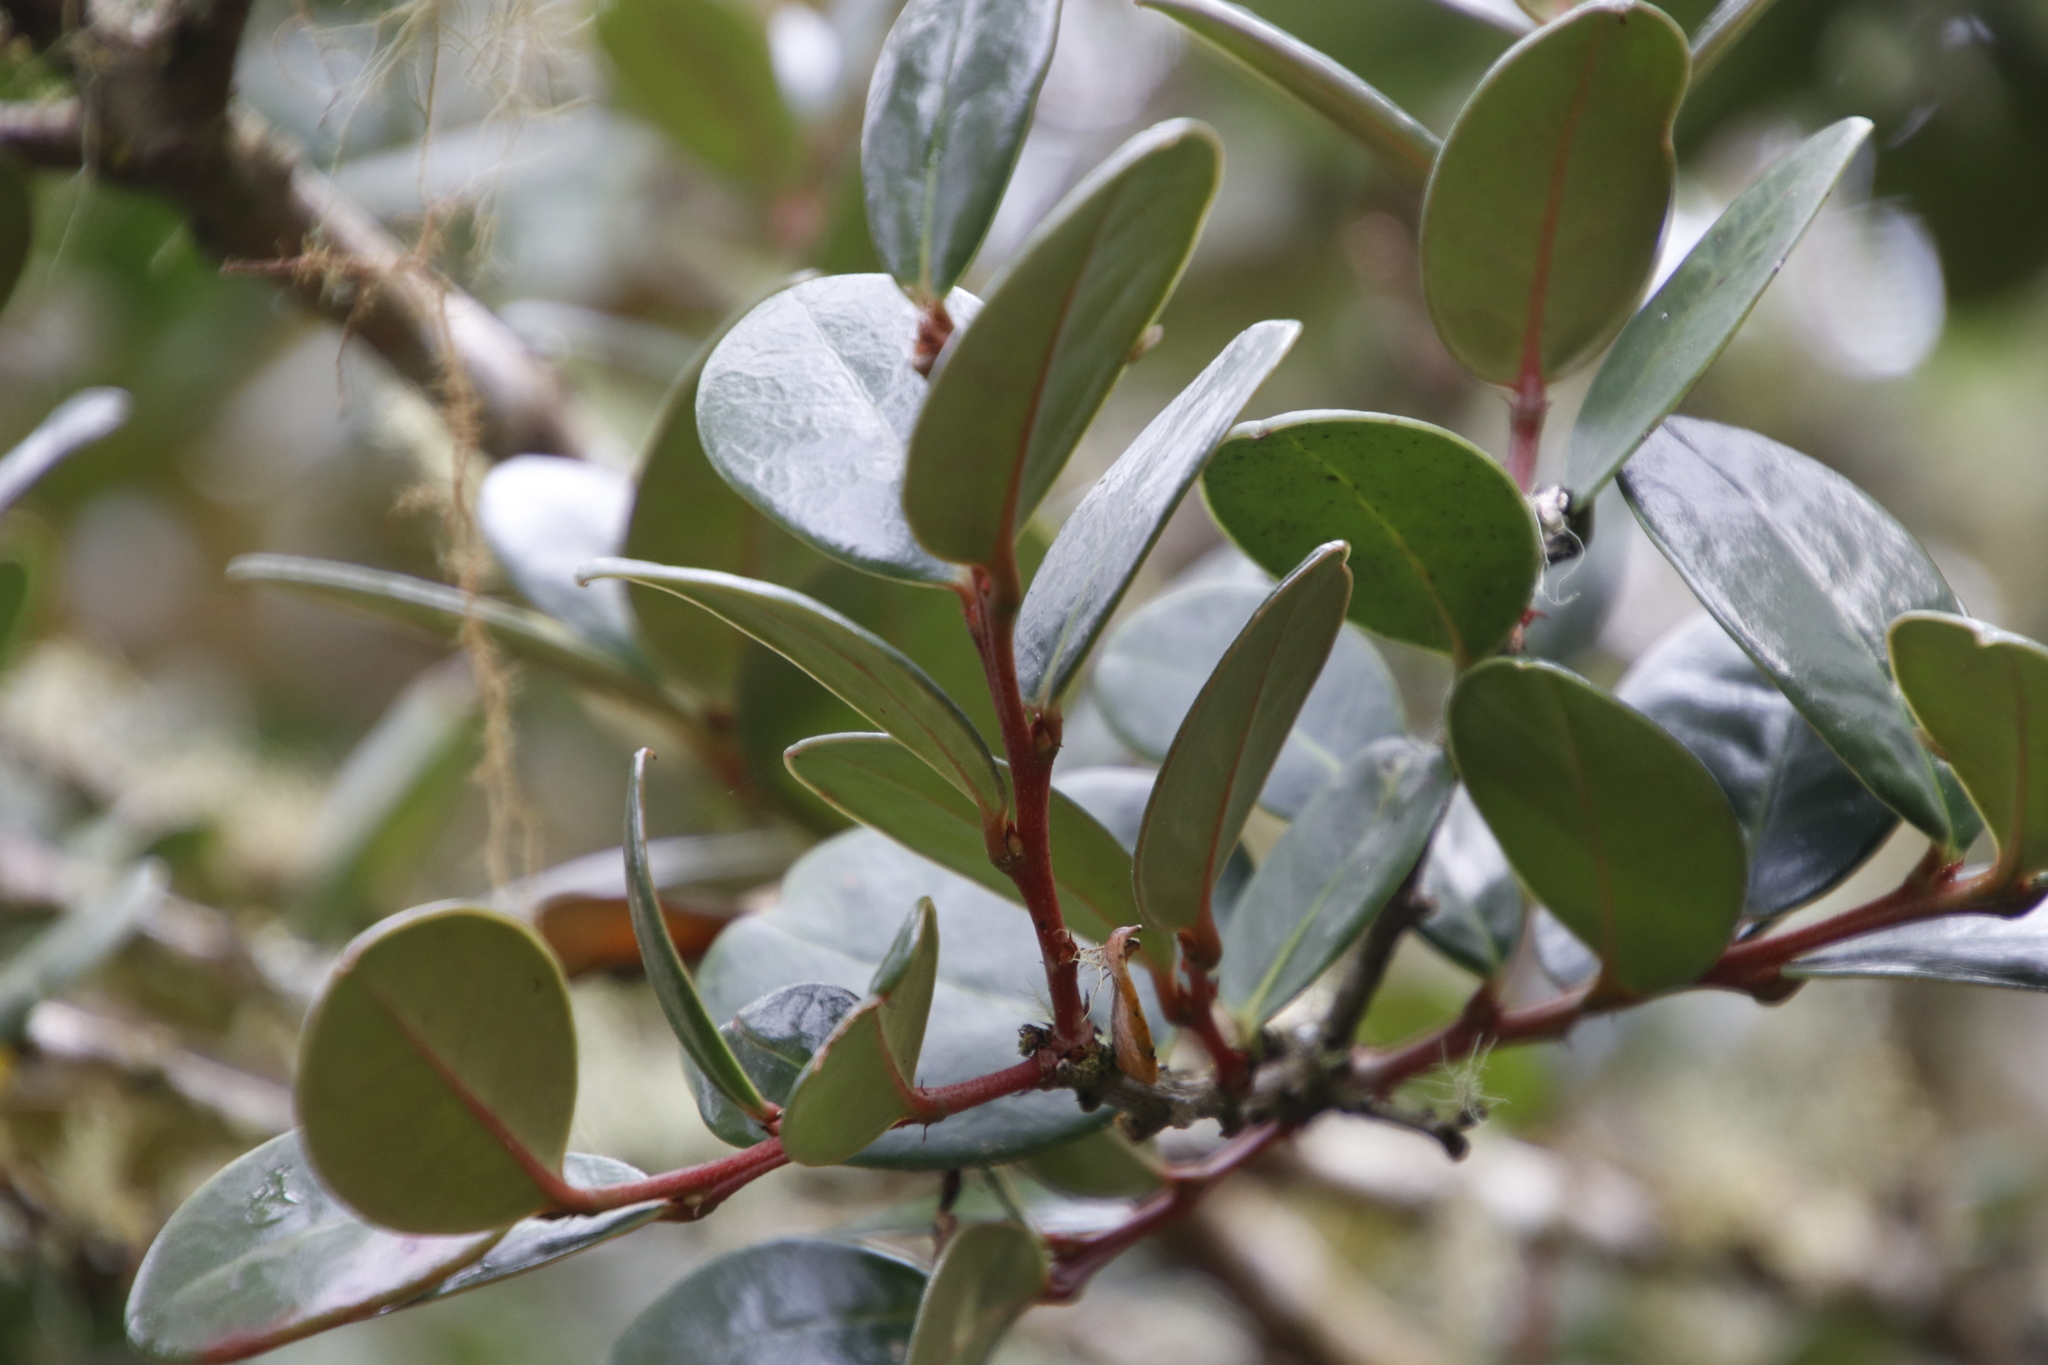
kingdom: Plantae
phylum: Tracheophyta
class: Magnoliopsida
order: Celastrales
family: Celastraceae
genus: Maurocenia
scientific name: Maurocenia frangula
